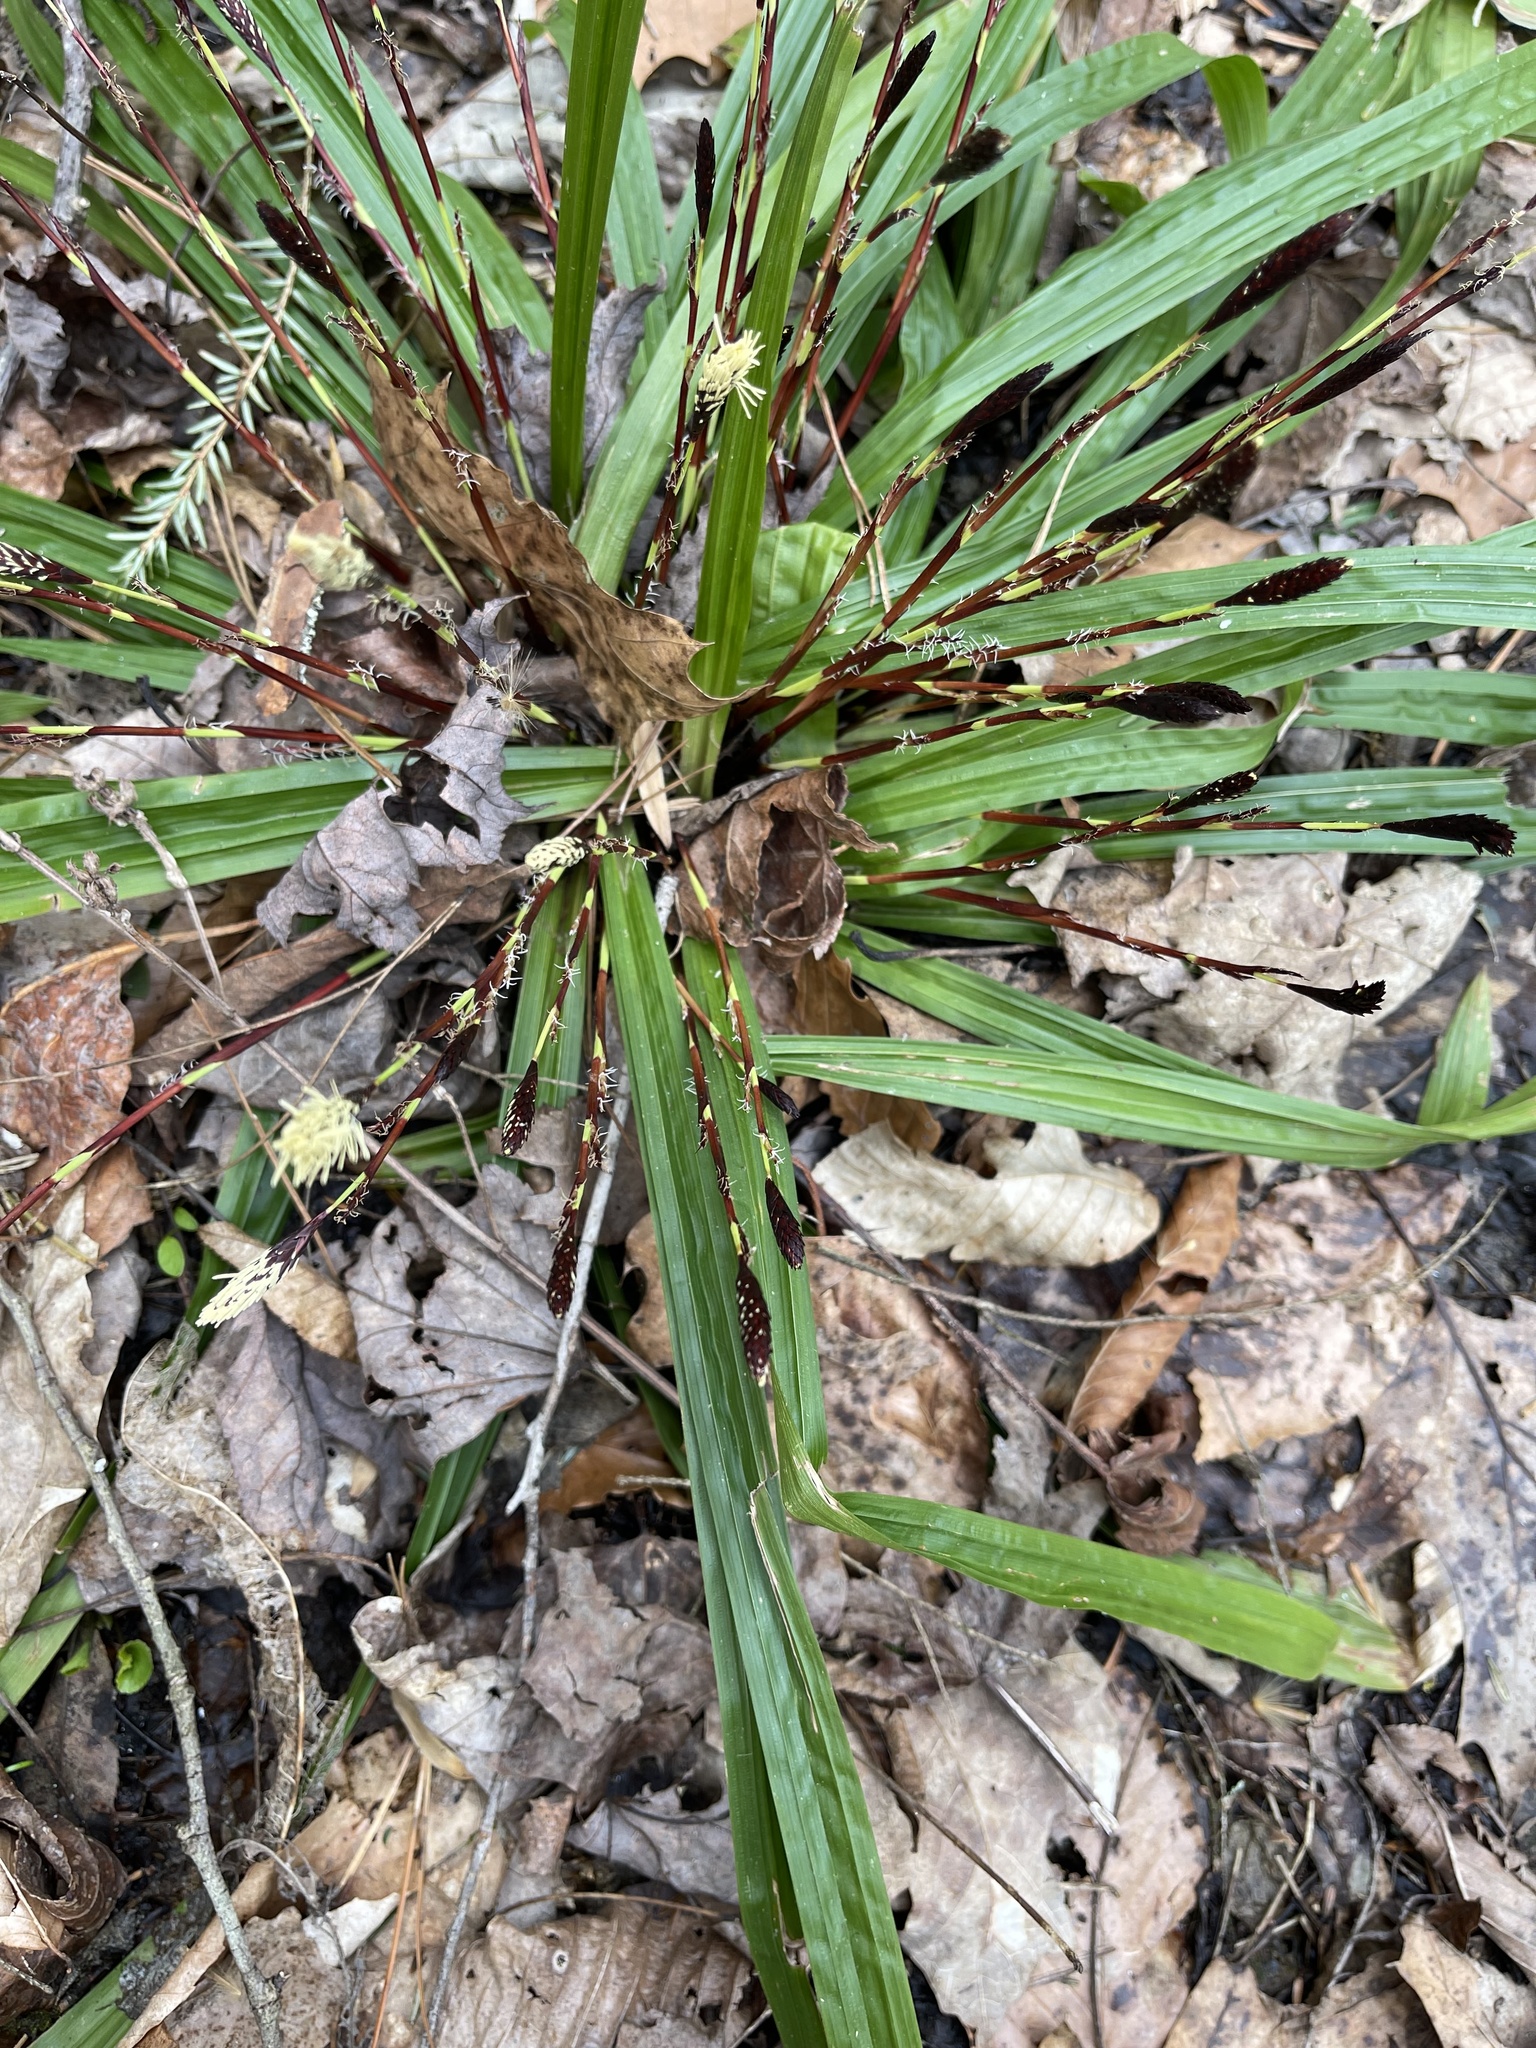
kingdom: Plantae
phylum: Tracheophyta
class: Liliopsida
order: Poales
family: Cyperaceae
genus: Carex
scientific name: Carex plantaginea
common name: Plantain-leaved sedge
